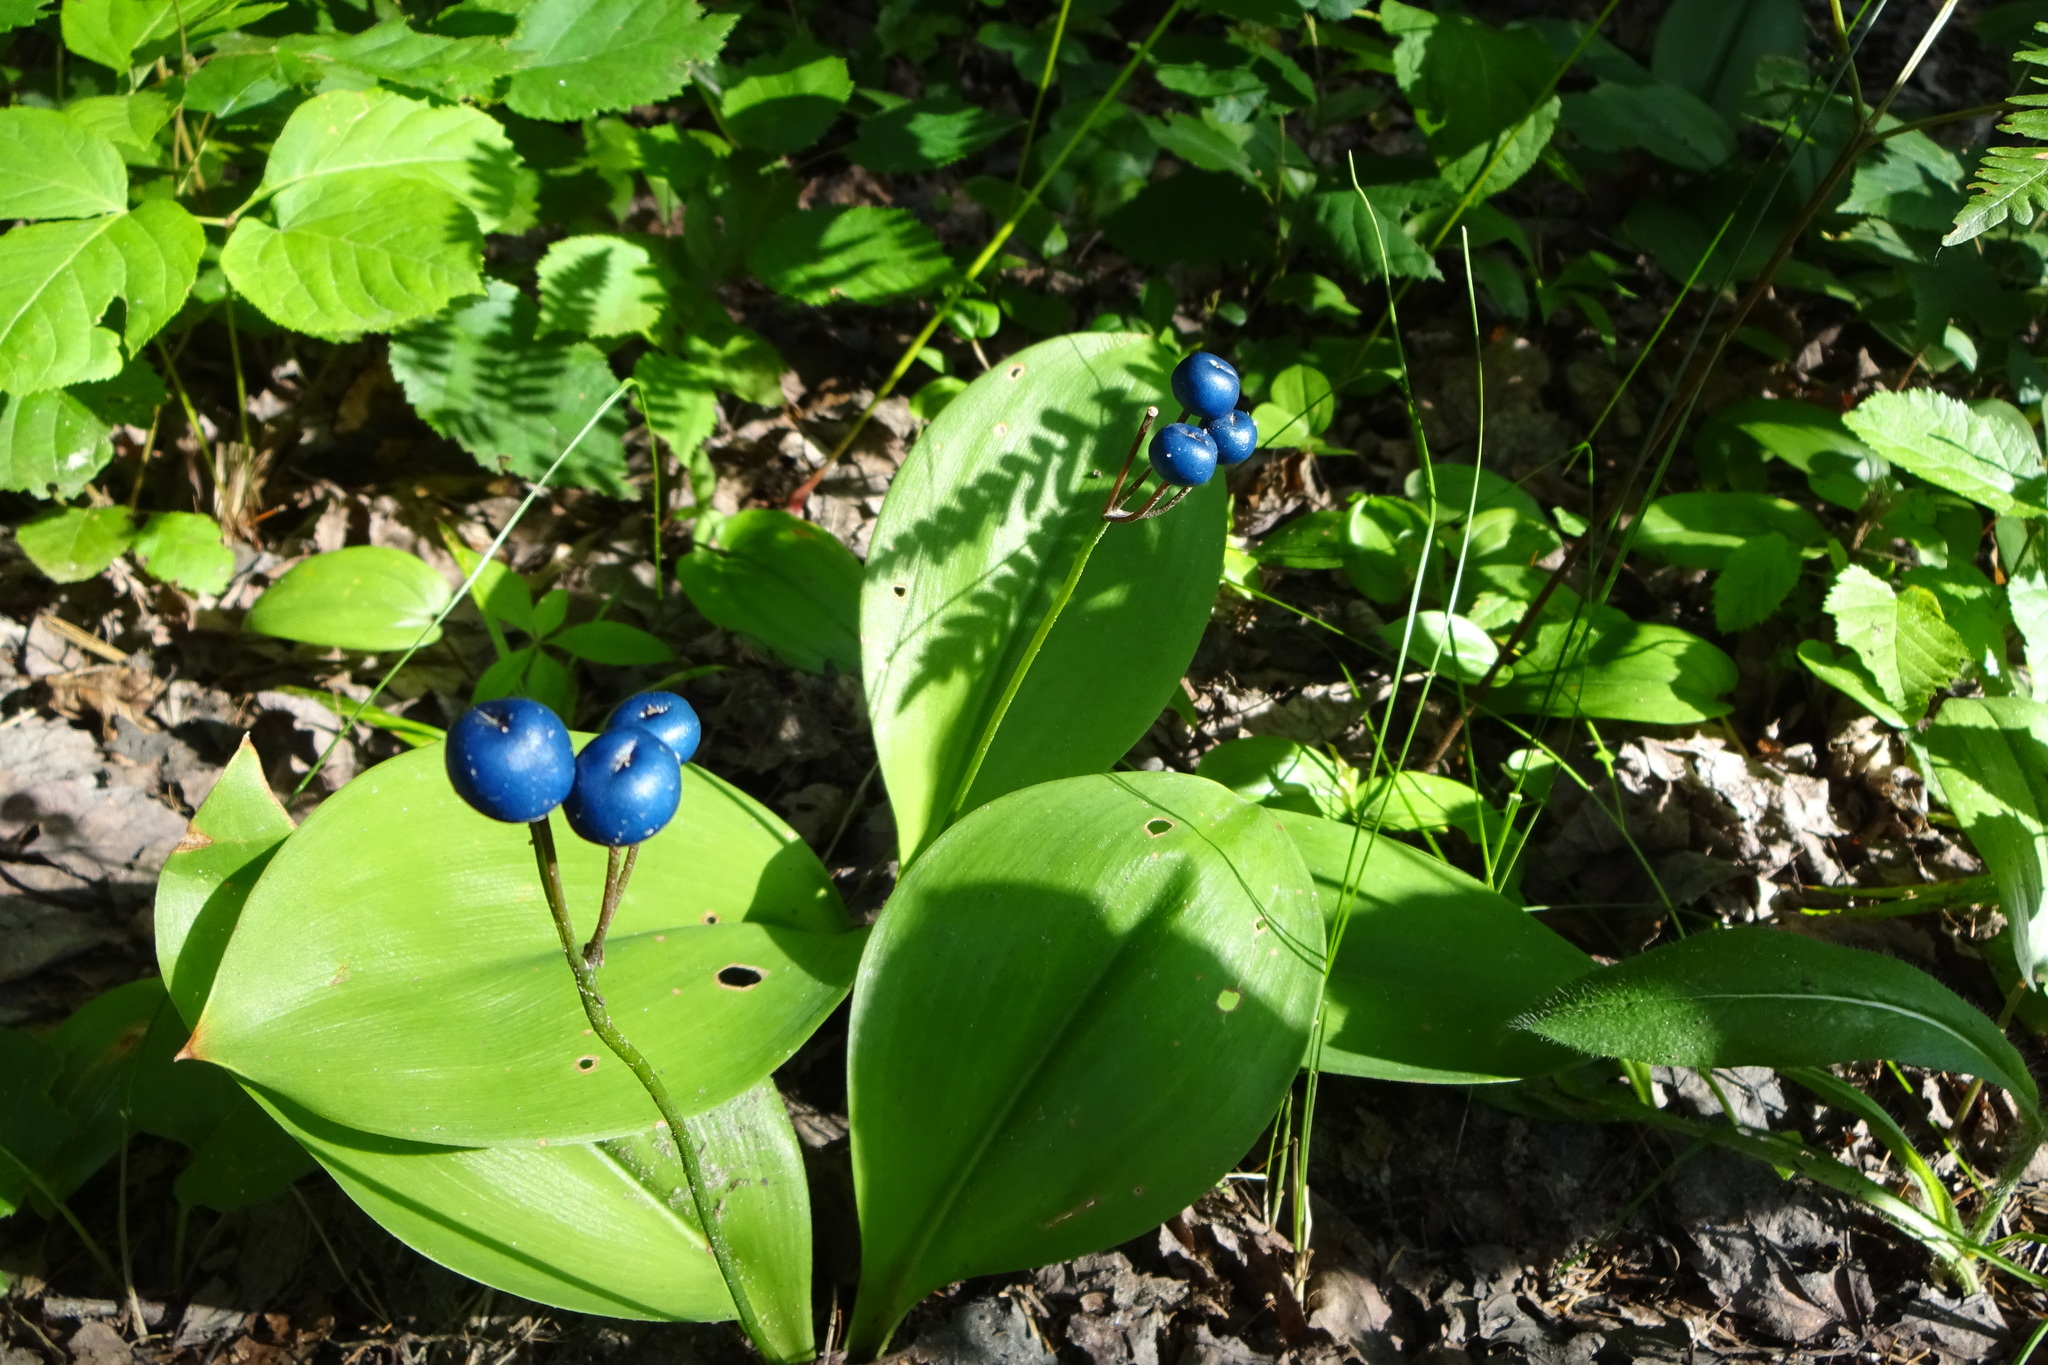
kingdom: Plantae
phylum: Tracheophyta
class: Liliopsida
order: Liliales
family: Liliaceae
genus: Clintonia
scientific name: Clintonia borealis
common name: Yellow clintonia
